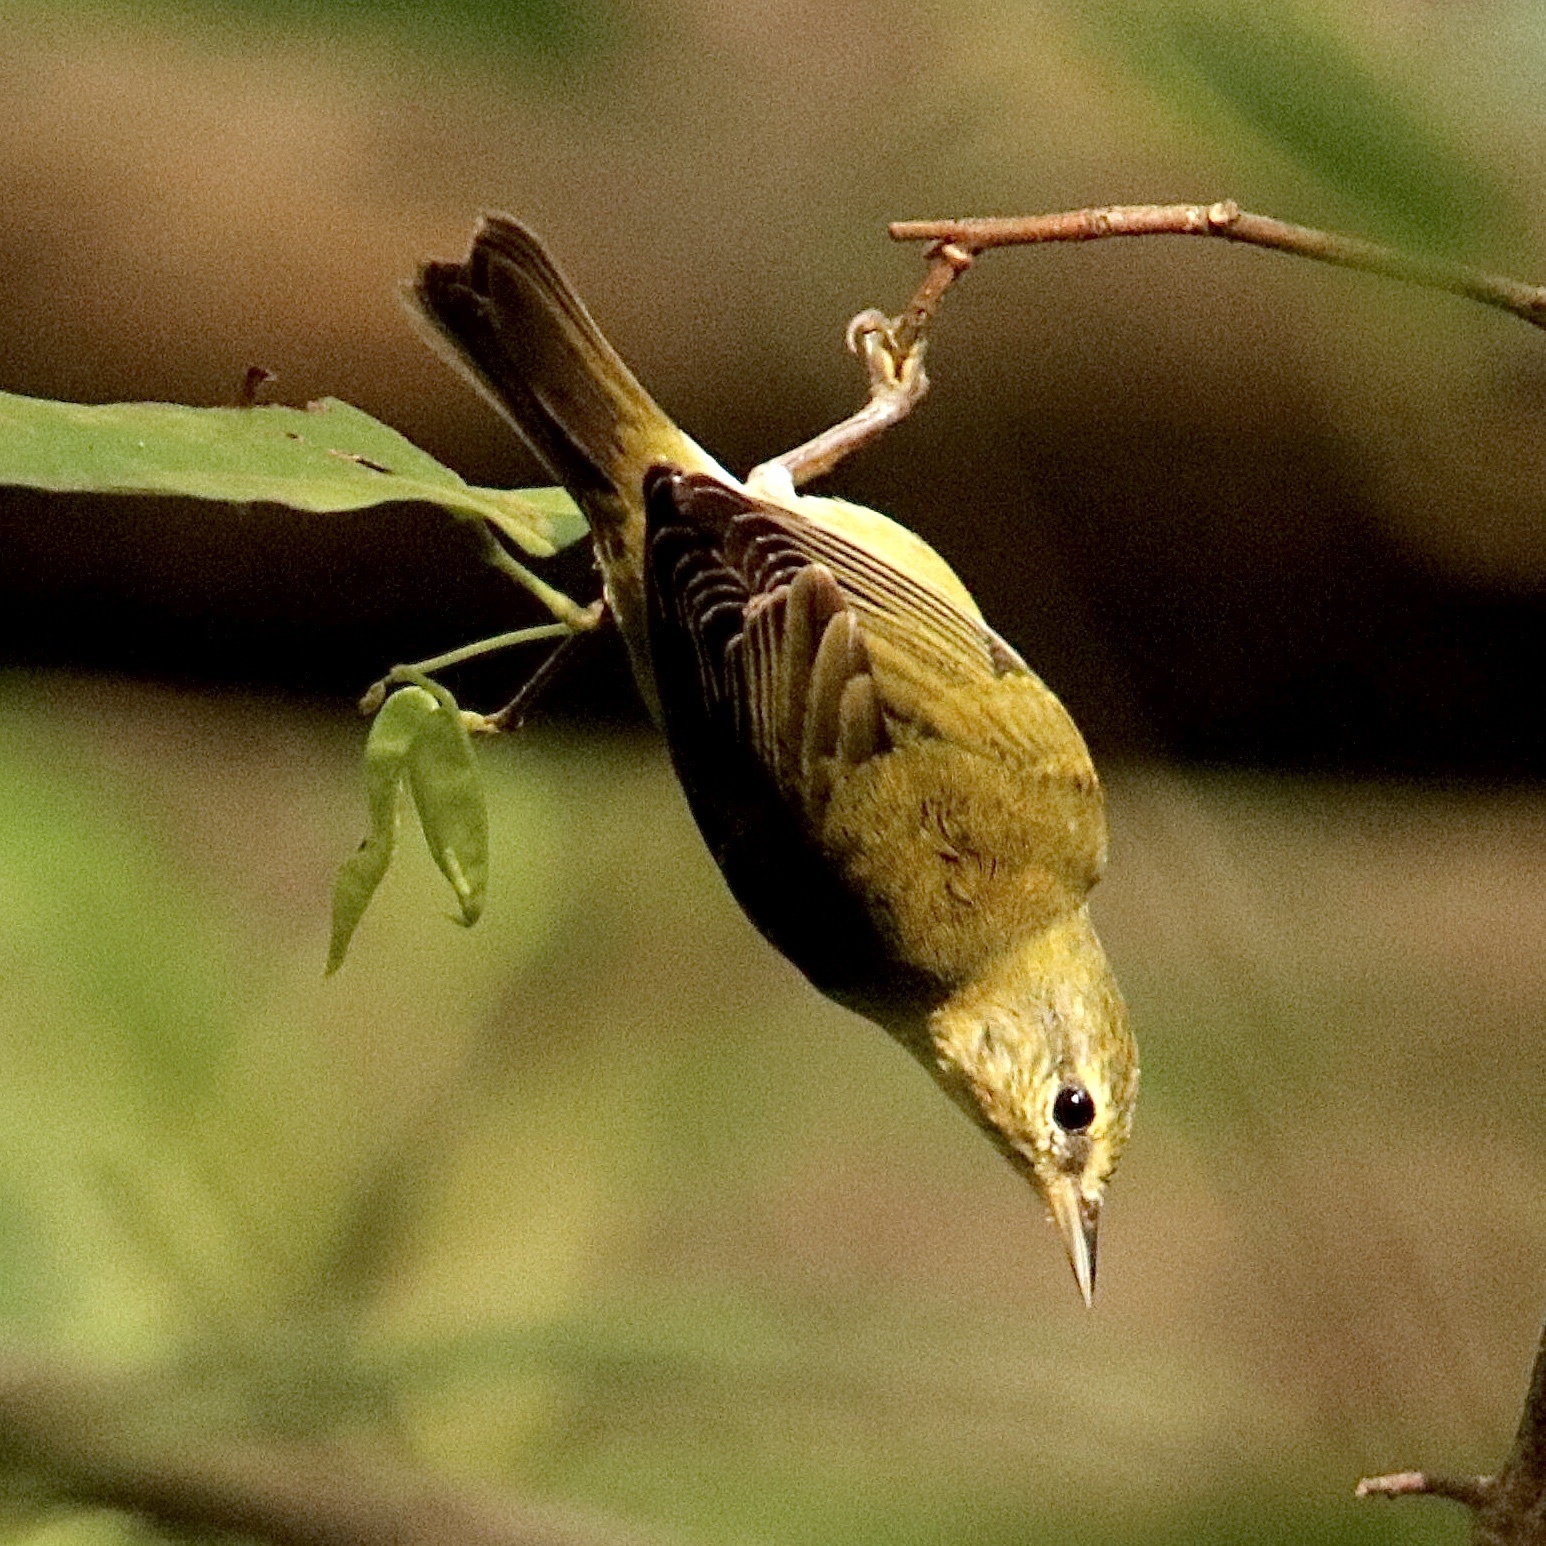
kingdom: Animalia
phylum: Chordata
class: Aves
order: Passeriformes
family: Parulidae
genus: Leiothlypis
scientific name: Leiothlypis peregrina
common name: Tennessee warbler
